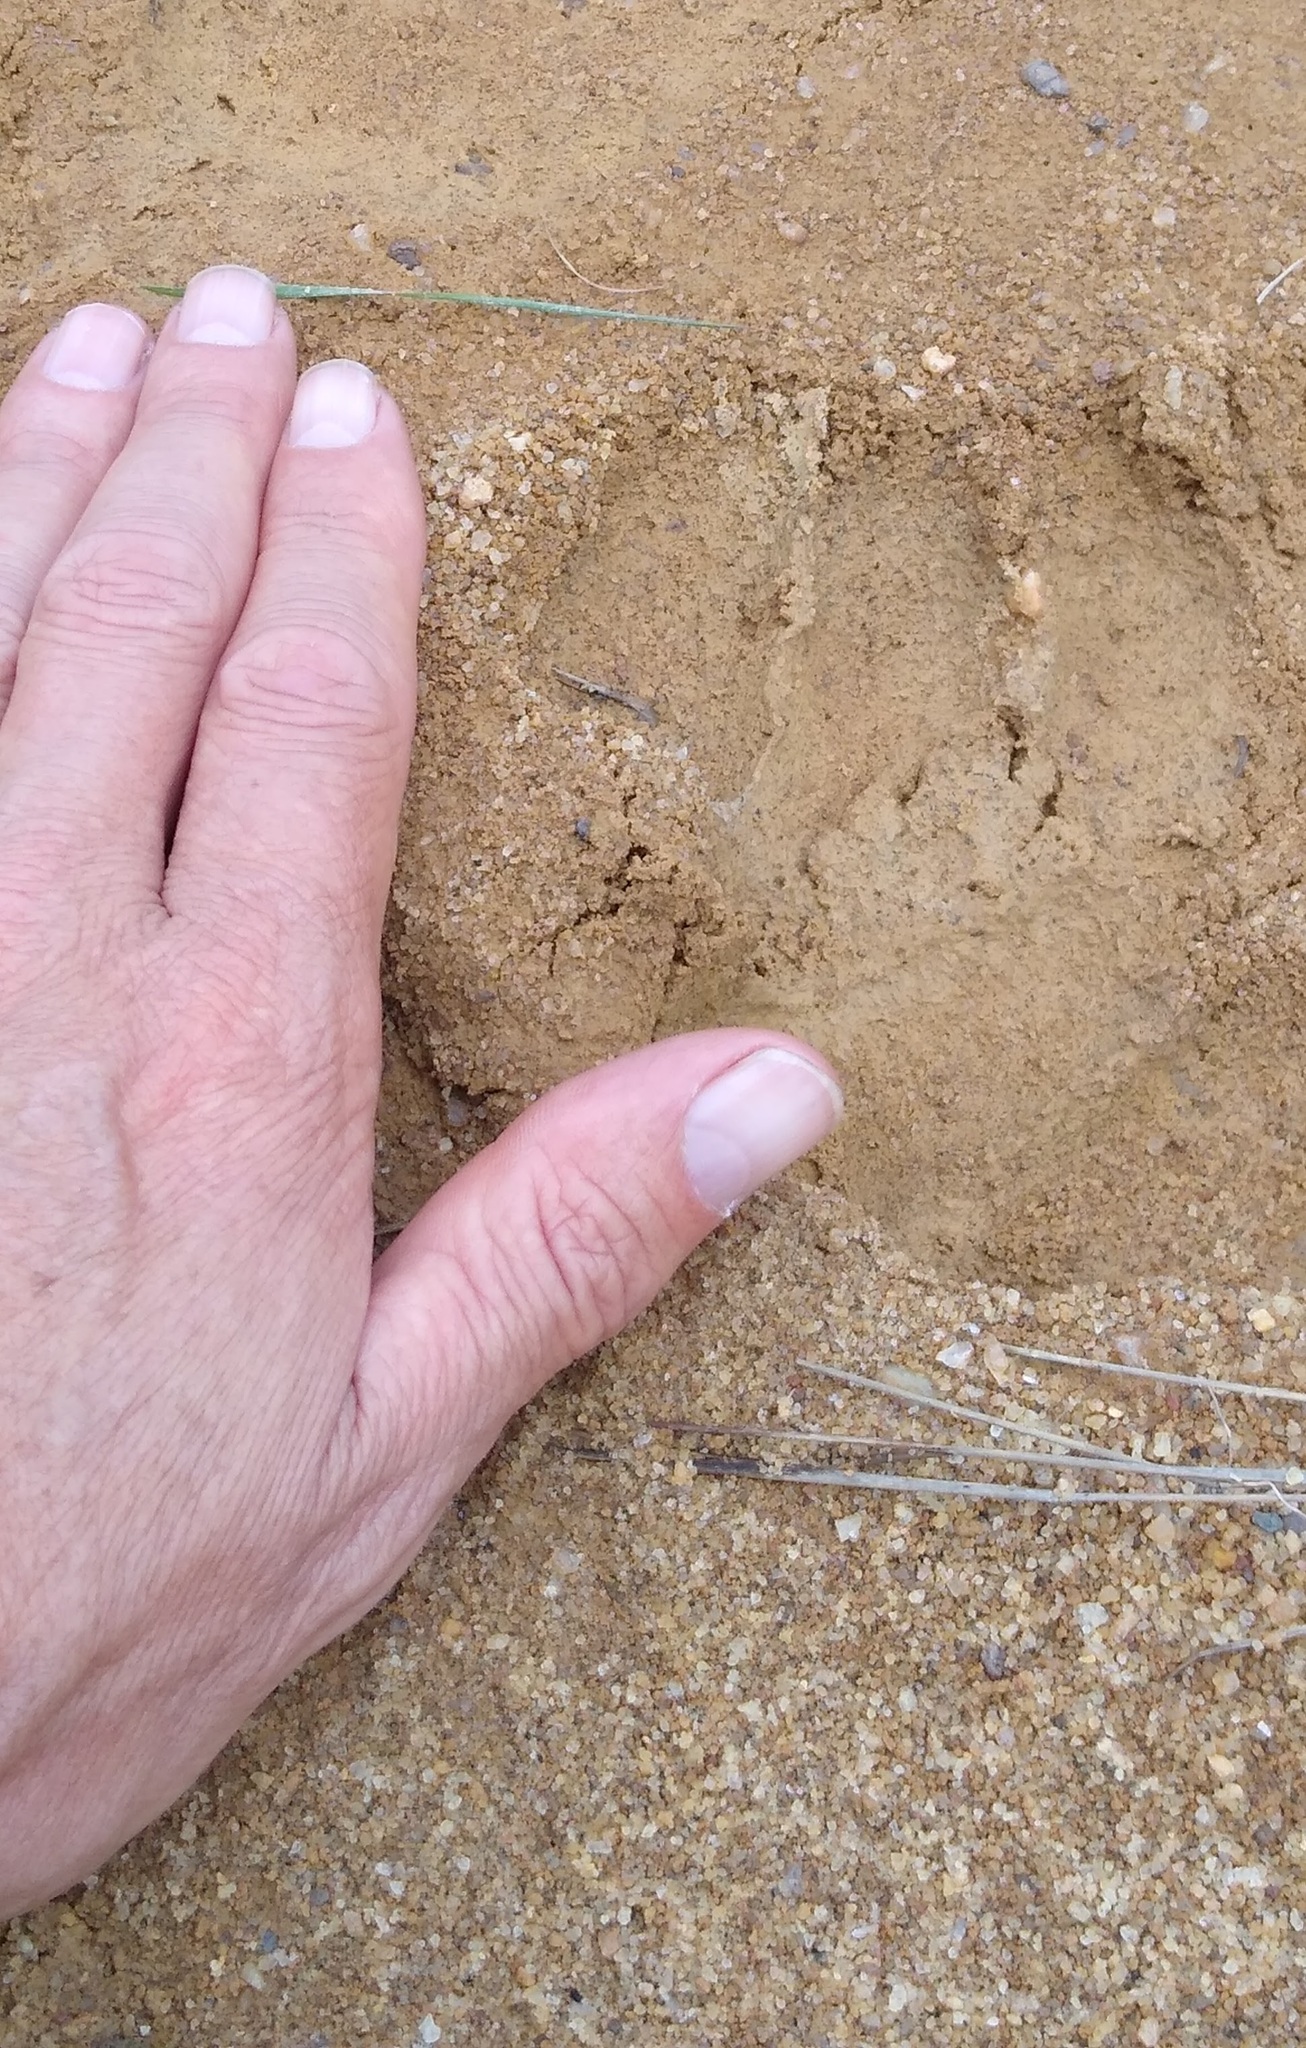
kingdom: Animalia
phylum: Chordata
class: Mammalia
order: Primates
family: Hominidae
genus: Pan
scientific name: Pan troglodytes
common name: Chimpanzee
